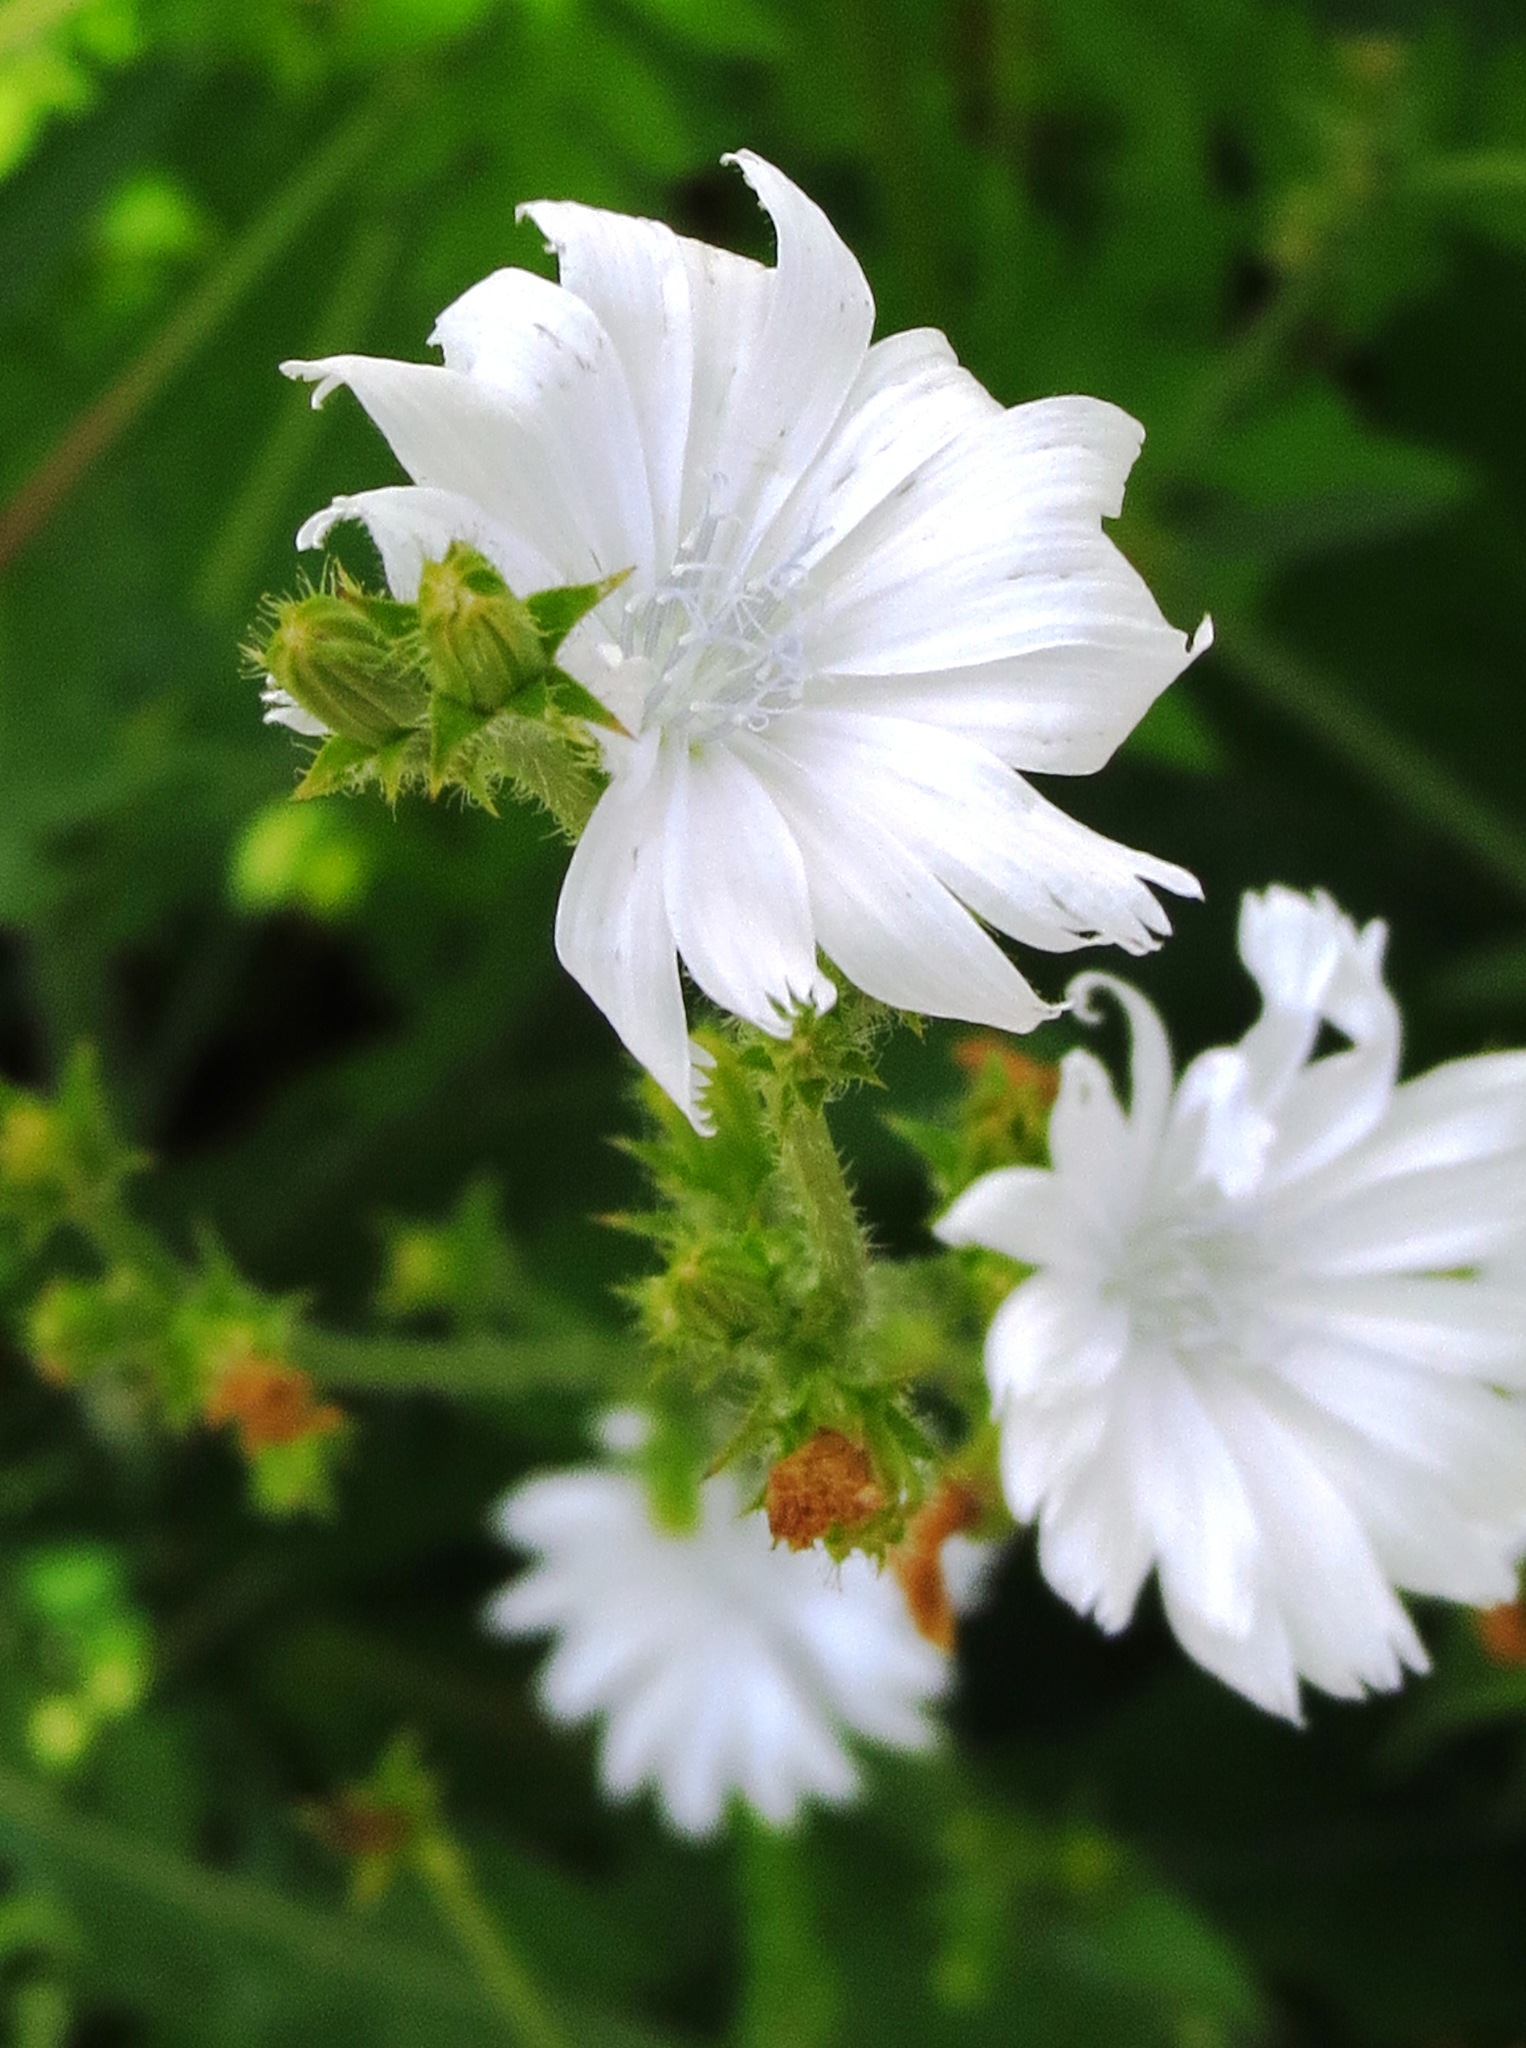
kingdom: Plantae
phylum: Tracheophyta
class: Magnoliopsida
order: Asterales
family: Asteraceae
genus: Cichorium
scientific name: Cichorium intybus
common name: Chicory
